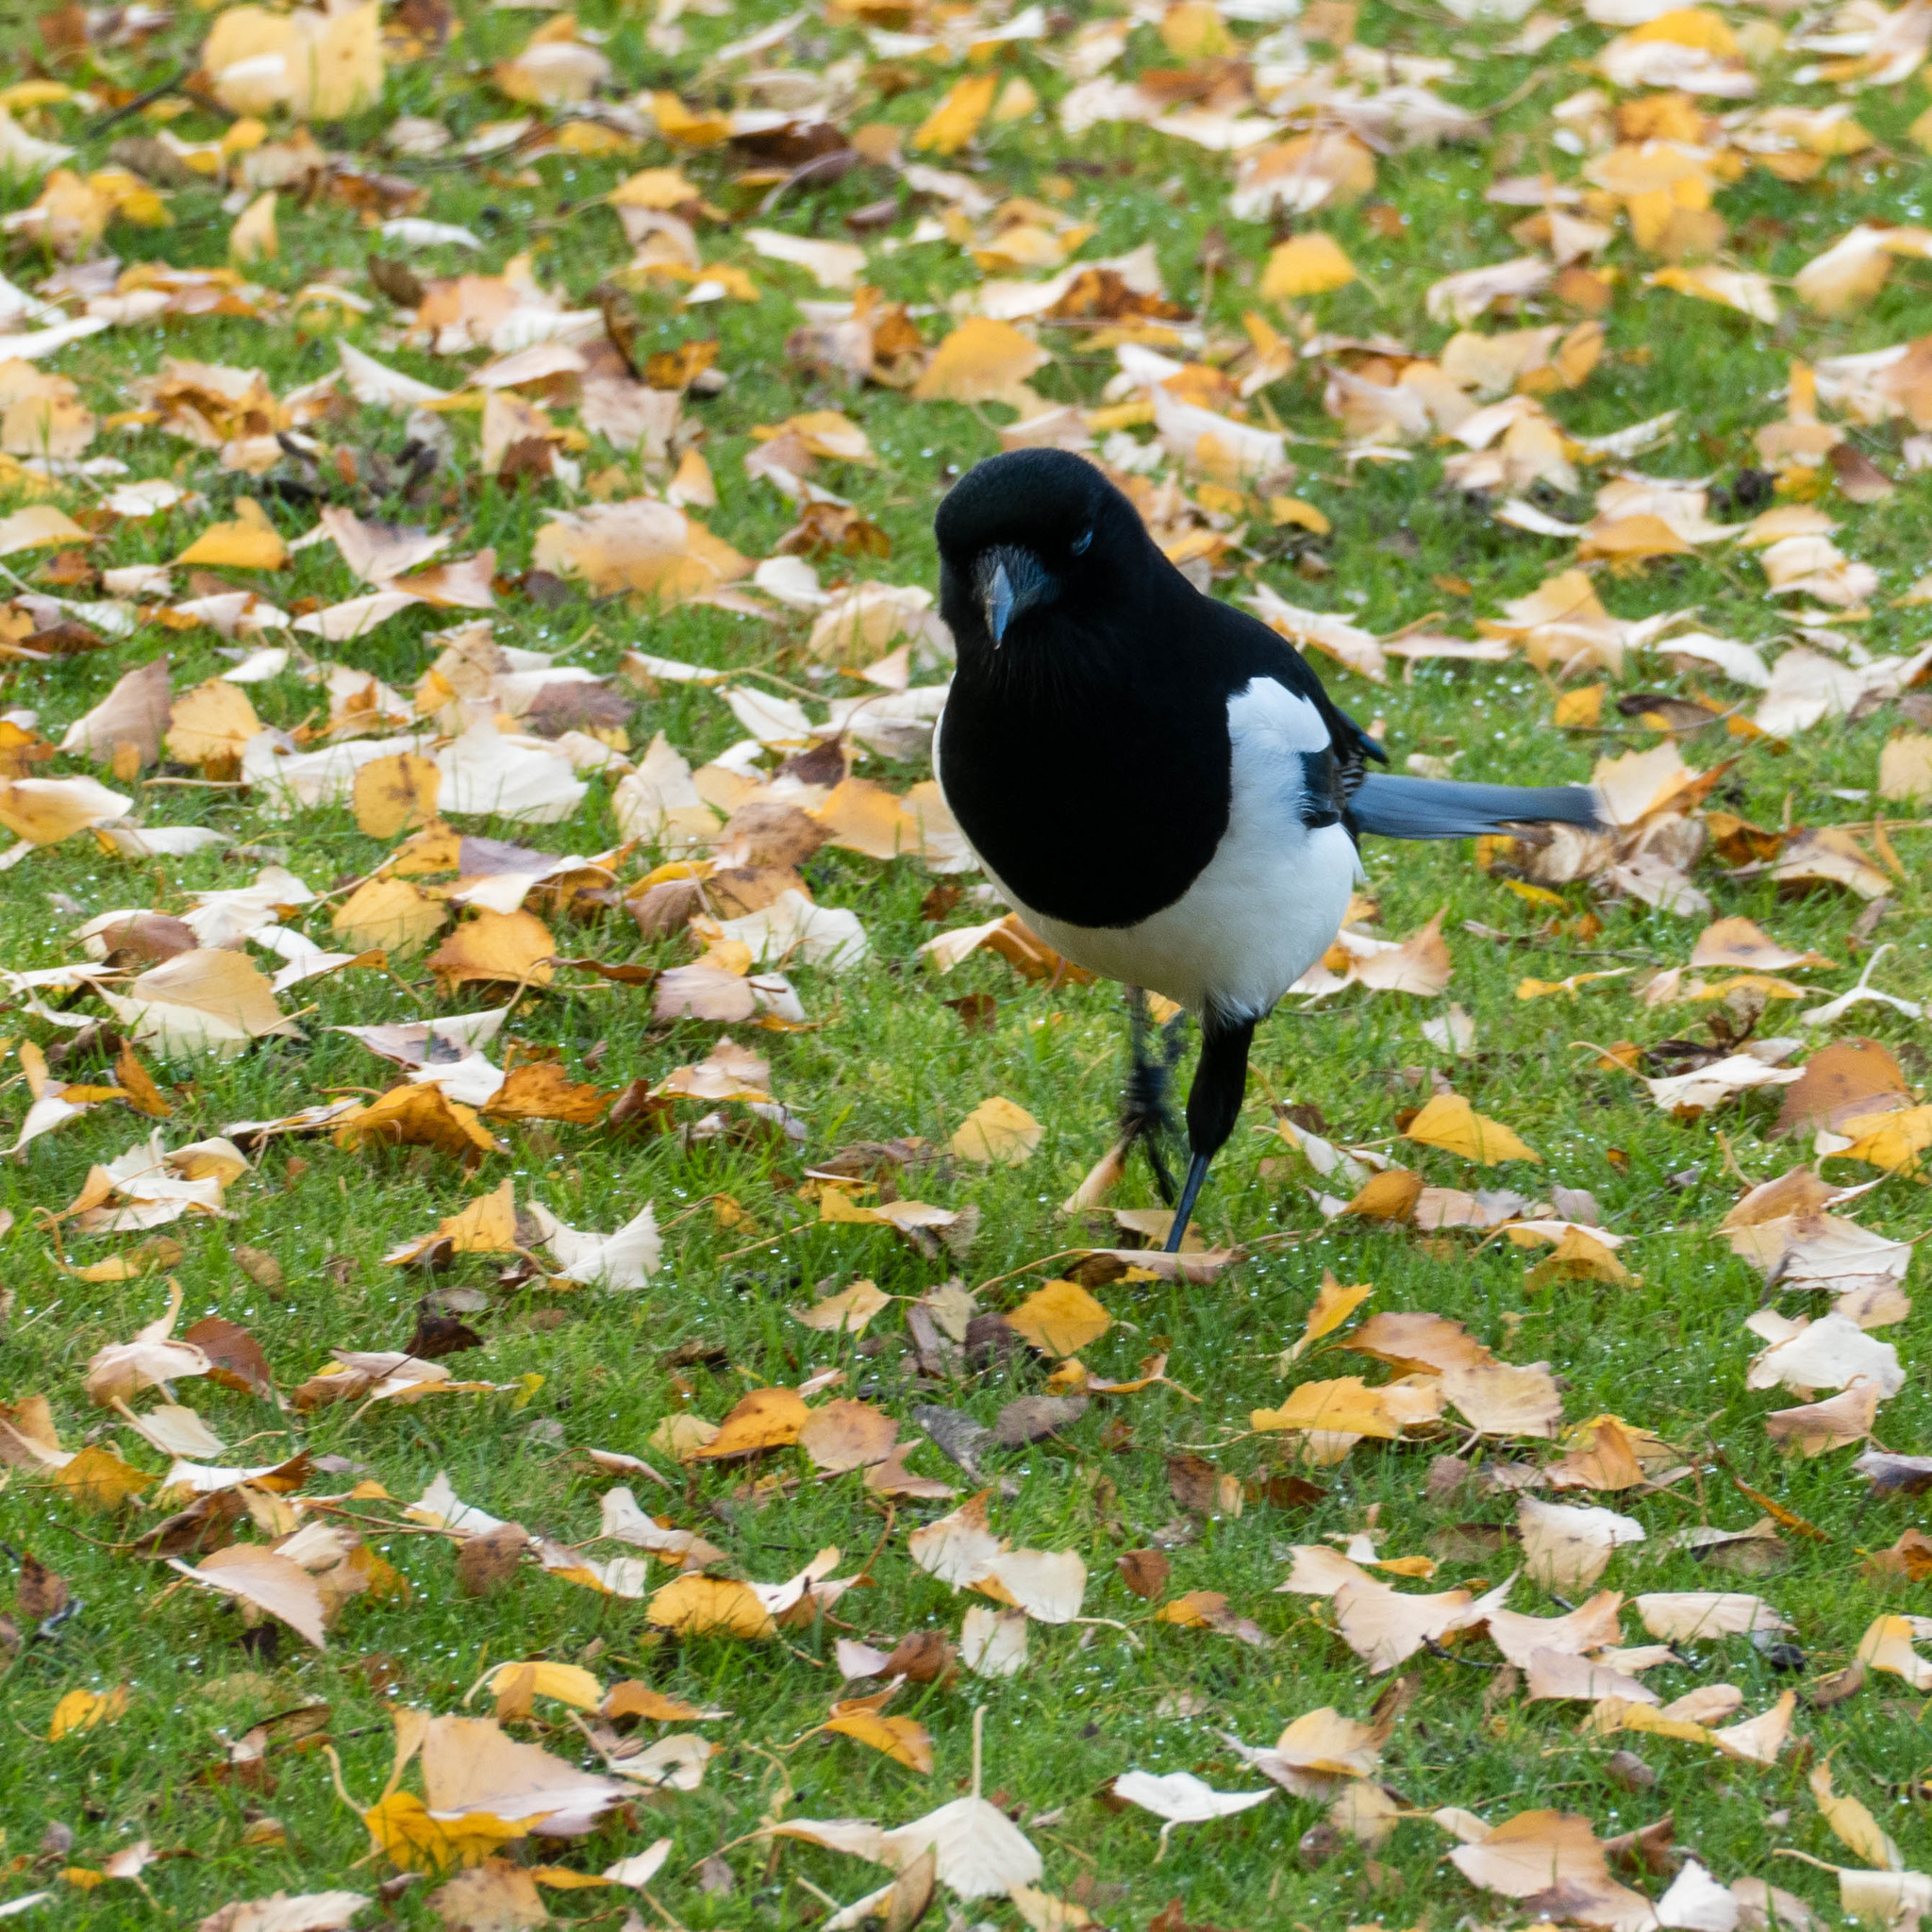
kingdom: Animalia
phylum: Chordata
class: Aves
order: Passeriformes
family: Corvidae
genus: Pica
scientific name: Pica pica
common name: Eurasian magpie
